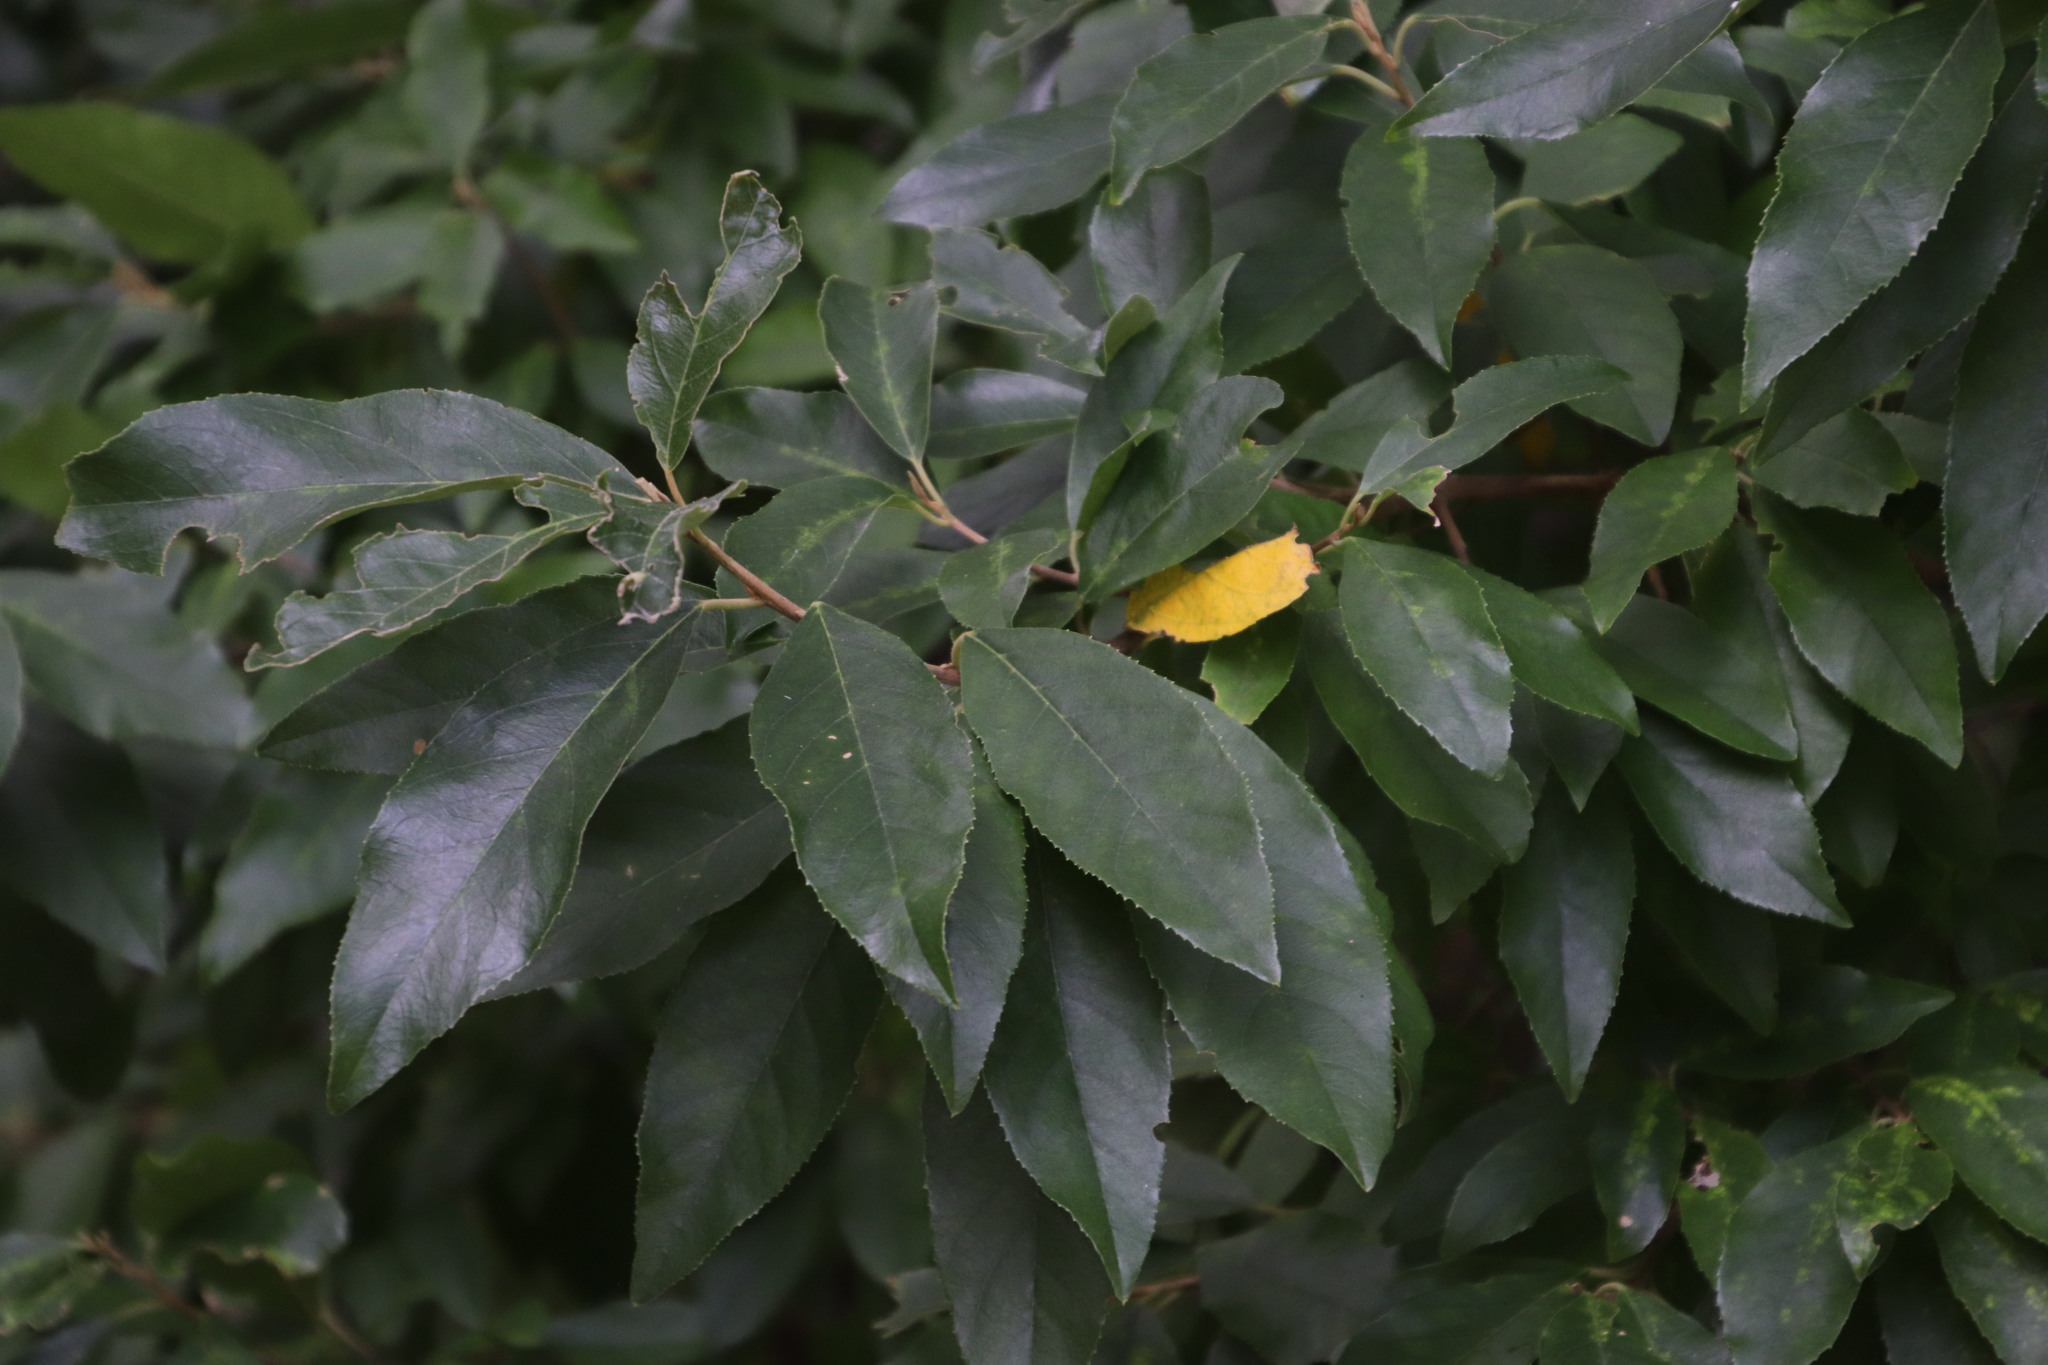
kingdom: Plantae
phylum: Tracheophyta
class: Magnoliopsida
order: Malpighiales
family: Achariaceae
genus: Kiggelaria
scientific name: Kiggelaria africana
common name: Wild peach
